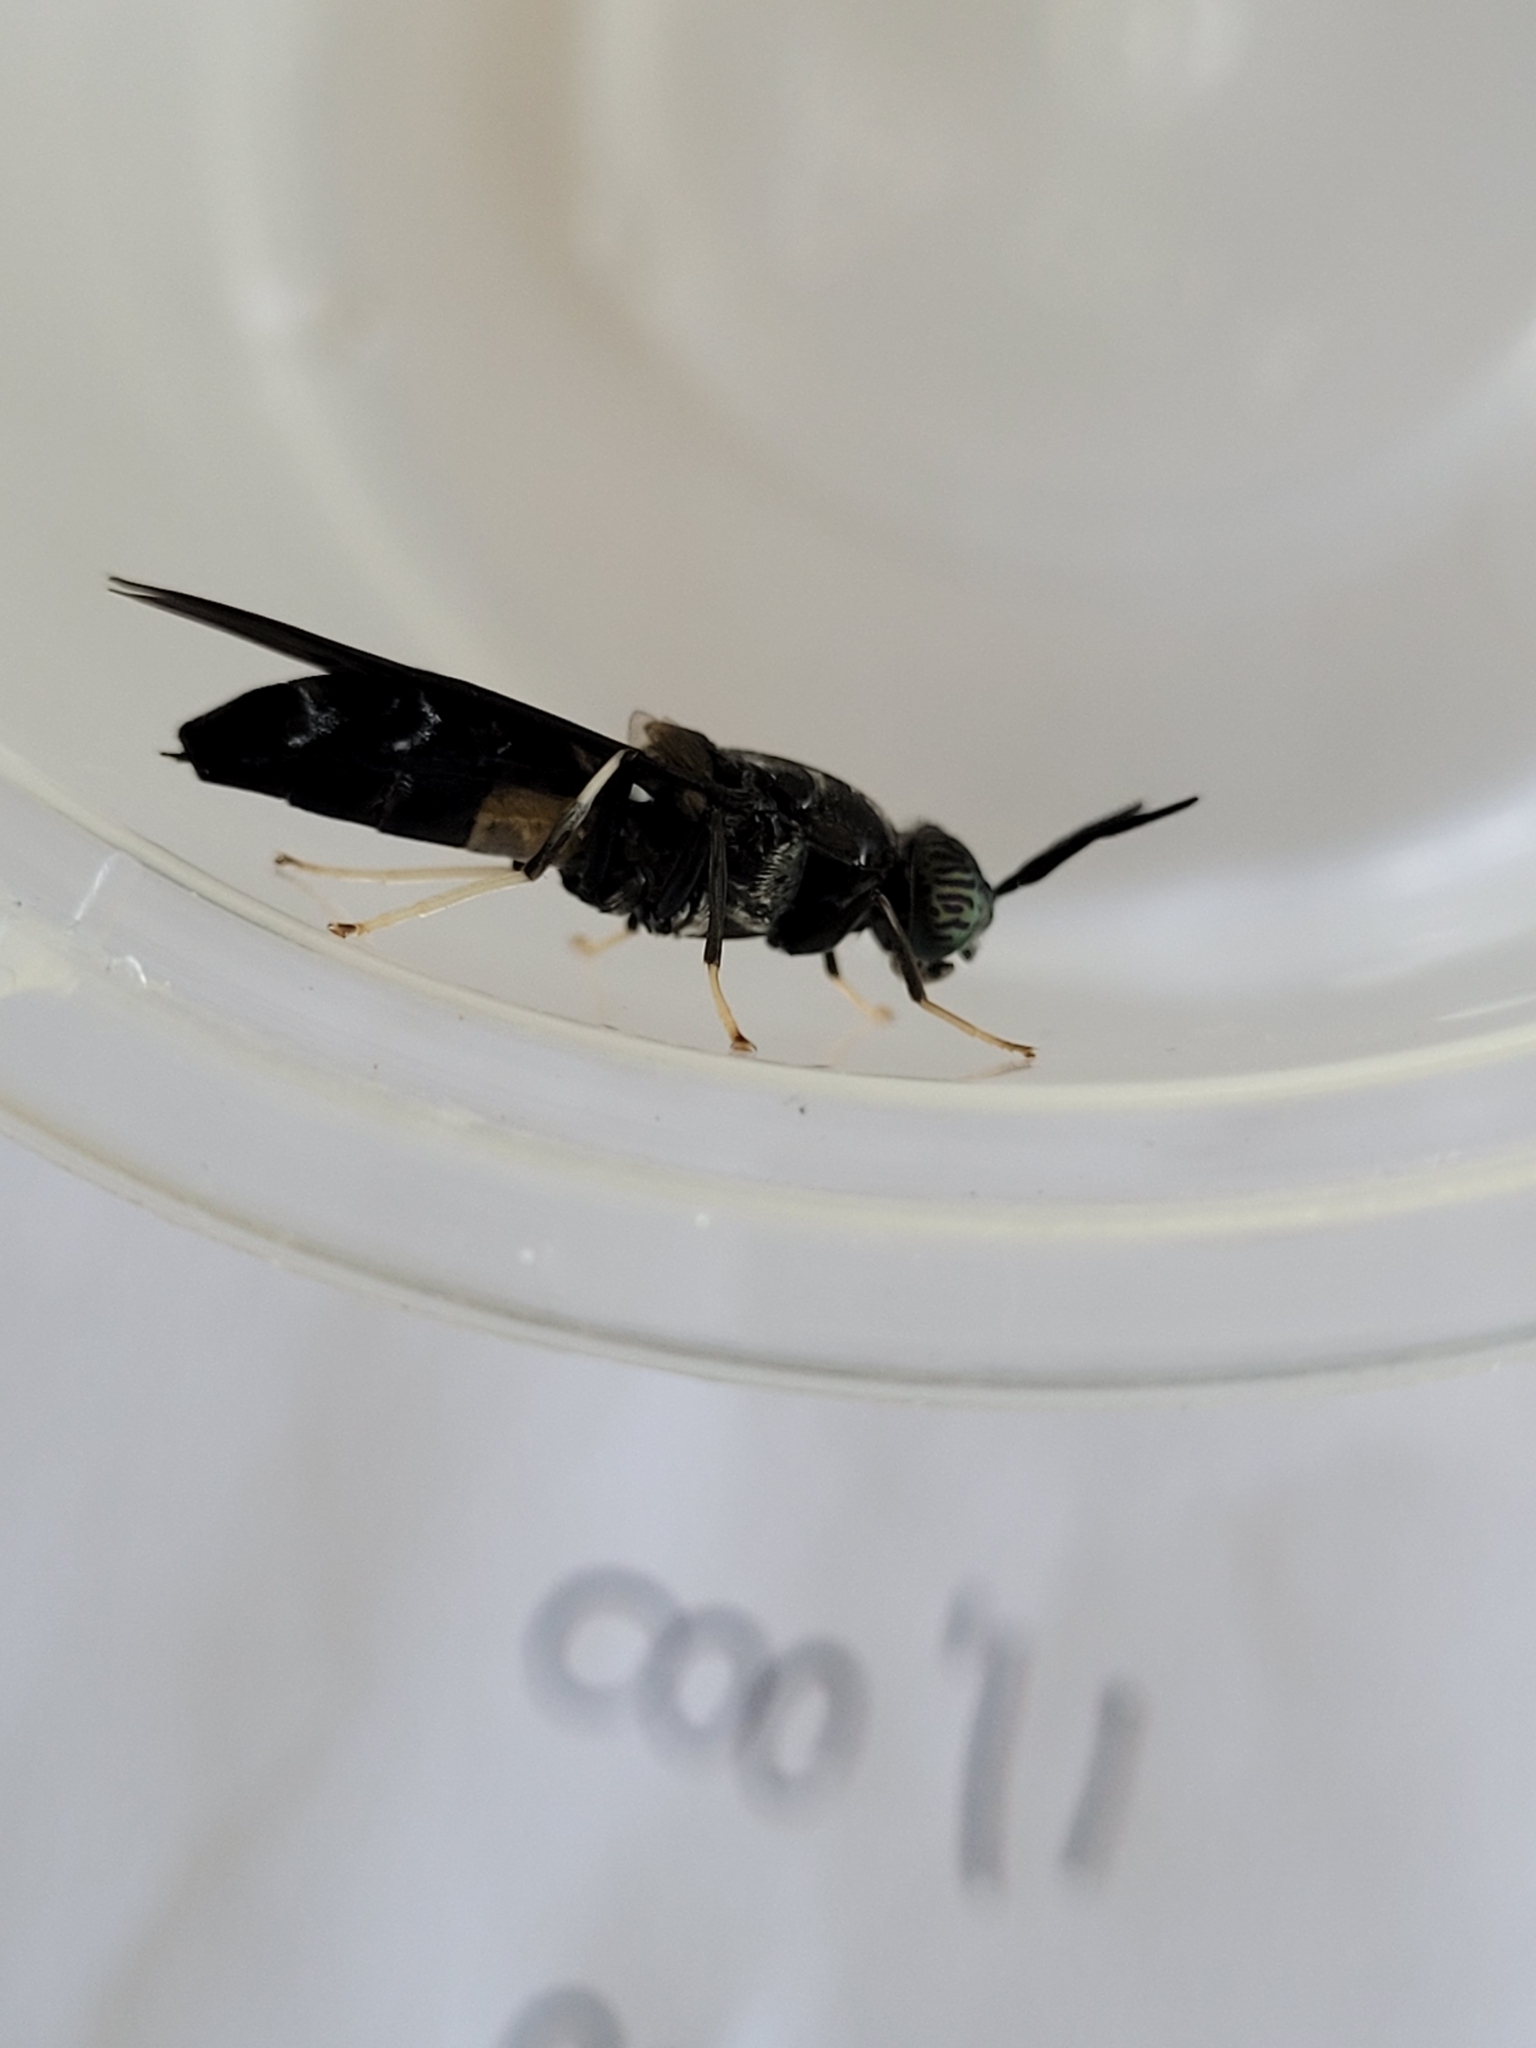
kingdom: Animalia
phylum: Arthropoda
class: Insecta
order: Diptera
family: Stratiomyidae
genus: Hermetia
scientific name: Hermetia illucens
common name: Black soldier fly
